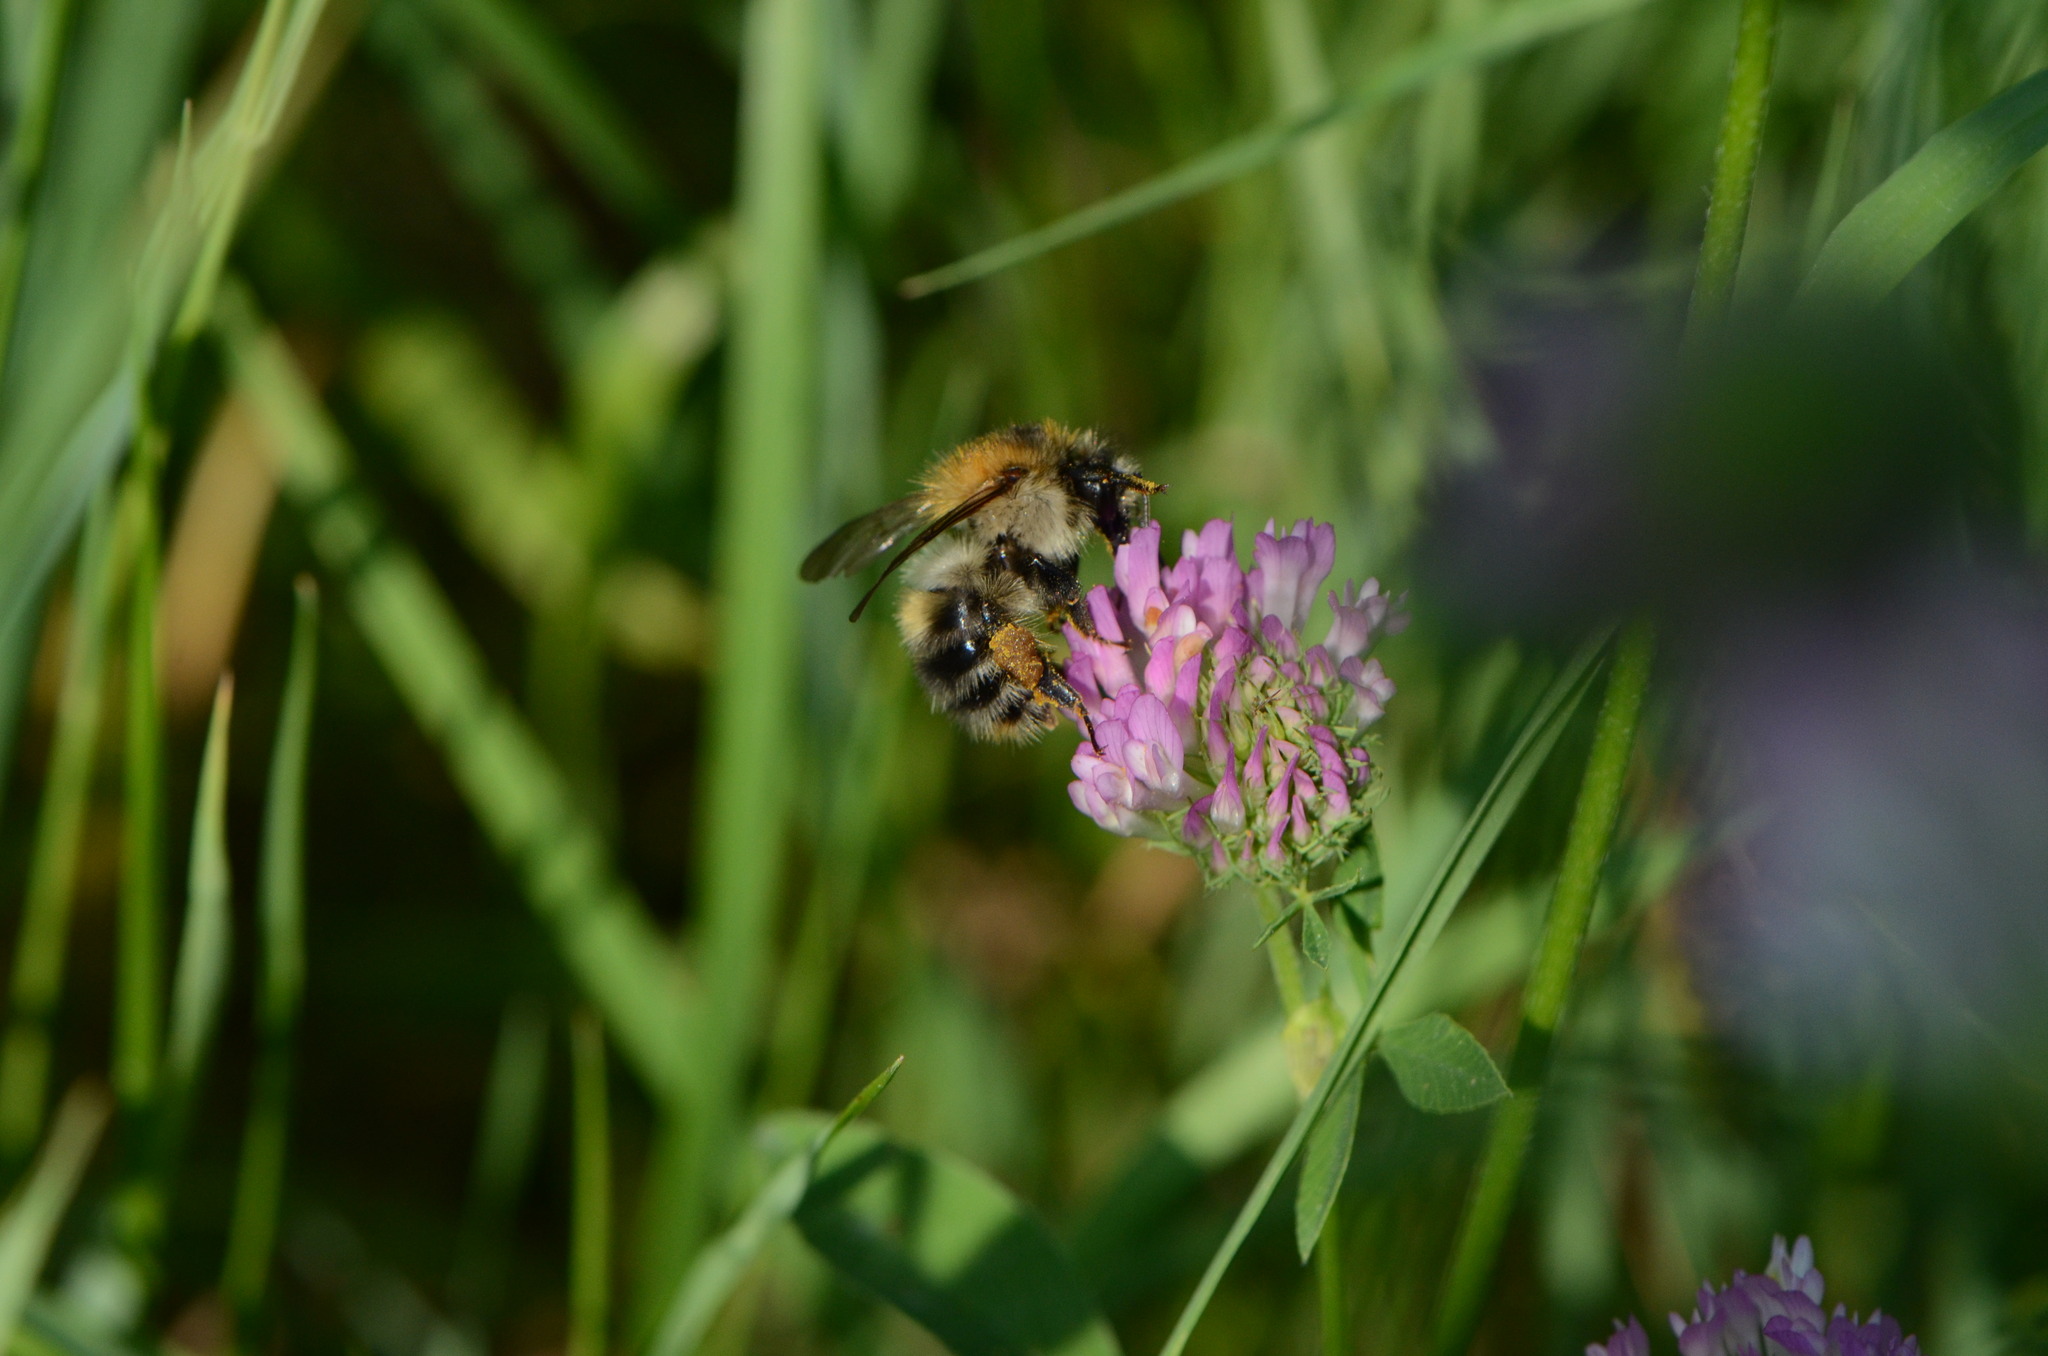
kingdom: Animalia
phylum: Arthropoda
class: Insecta
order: Hymenoptera
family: Apidae
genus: Bombus
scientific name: Bombus pascuorum
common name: Common carder bee
